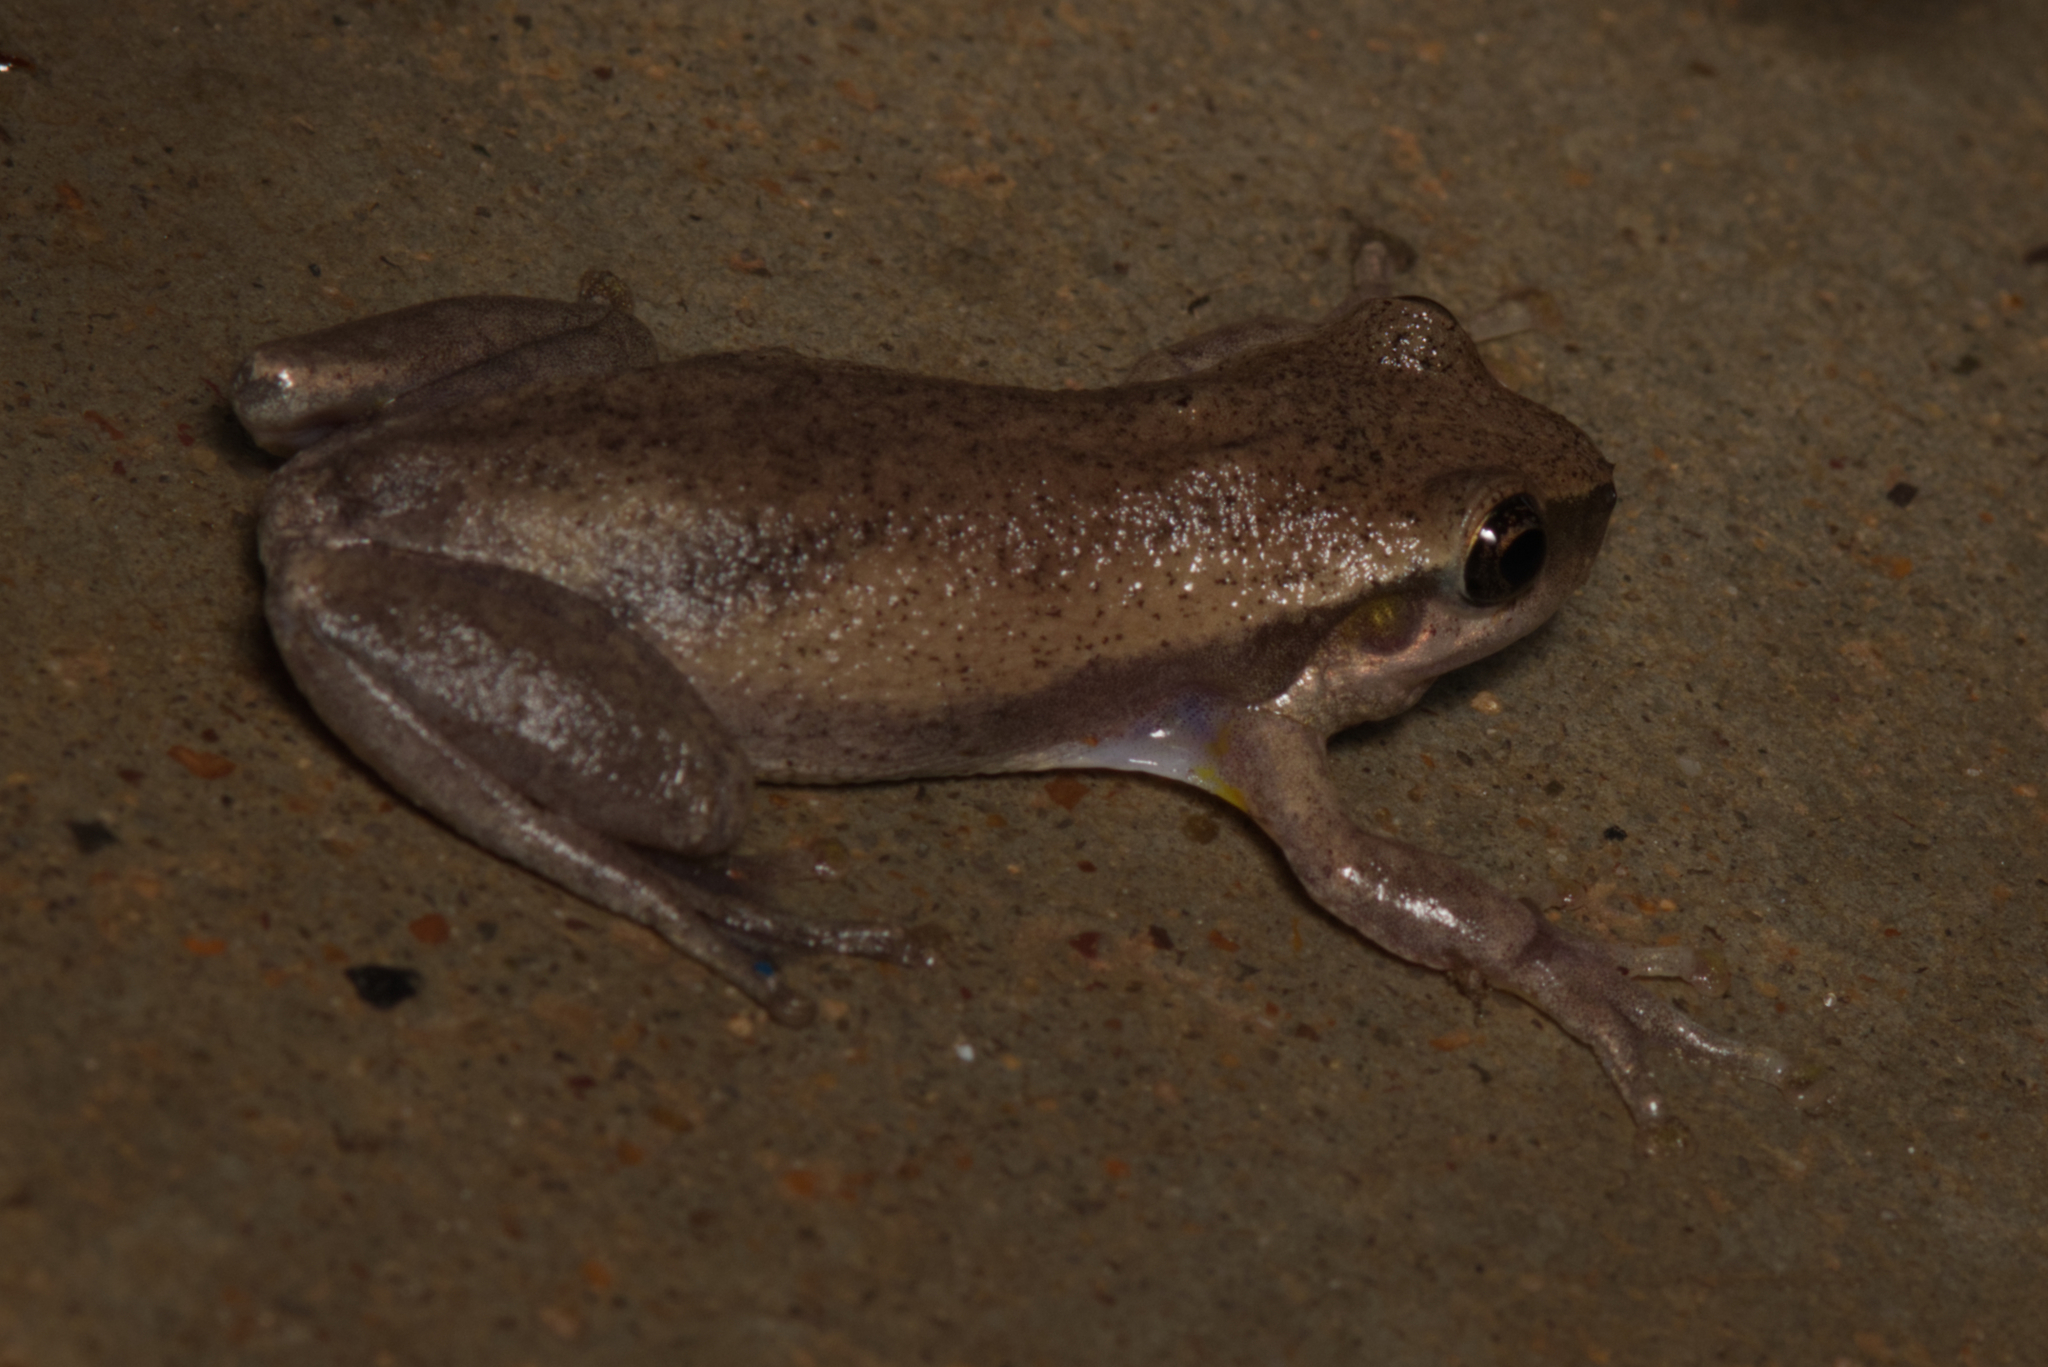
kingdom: Animalia
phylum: Chordata
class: Amphibia
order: Anura
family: Pelodryadidae
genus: Litoria
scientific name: Litoria rubella
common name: Desert tree frog
